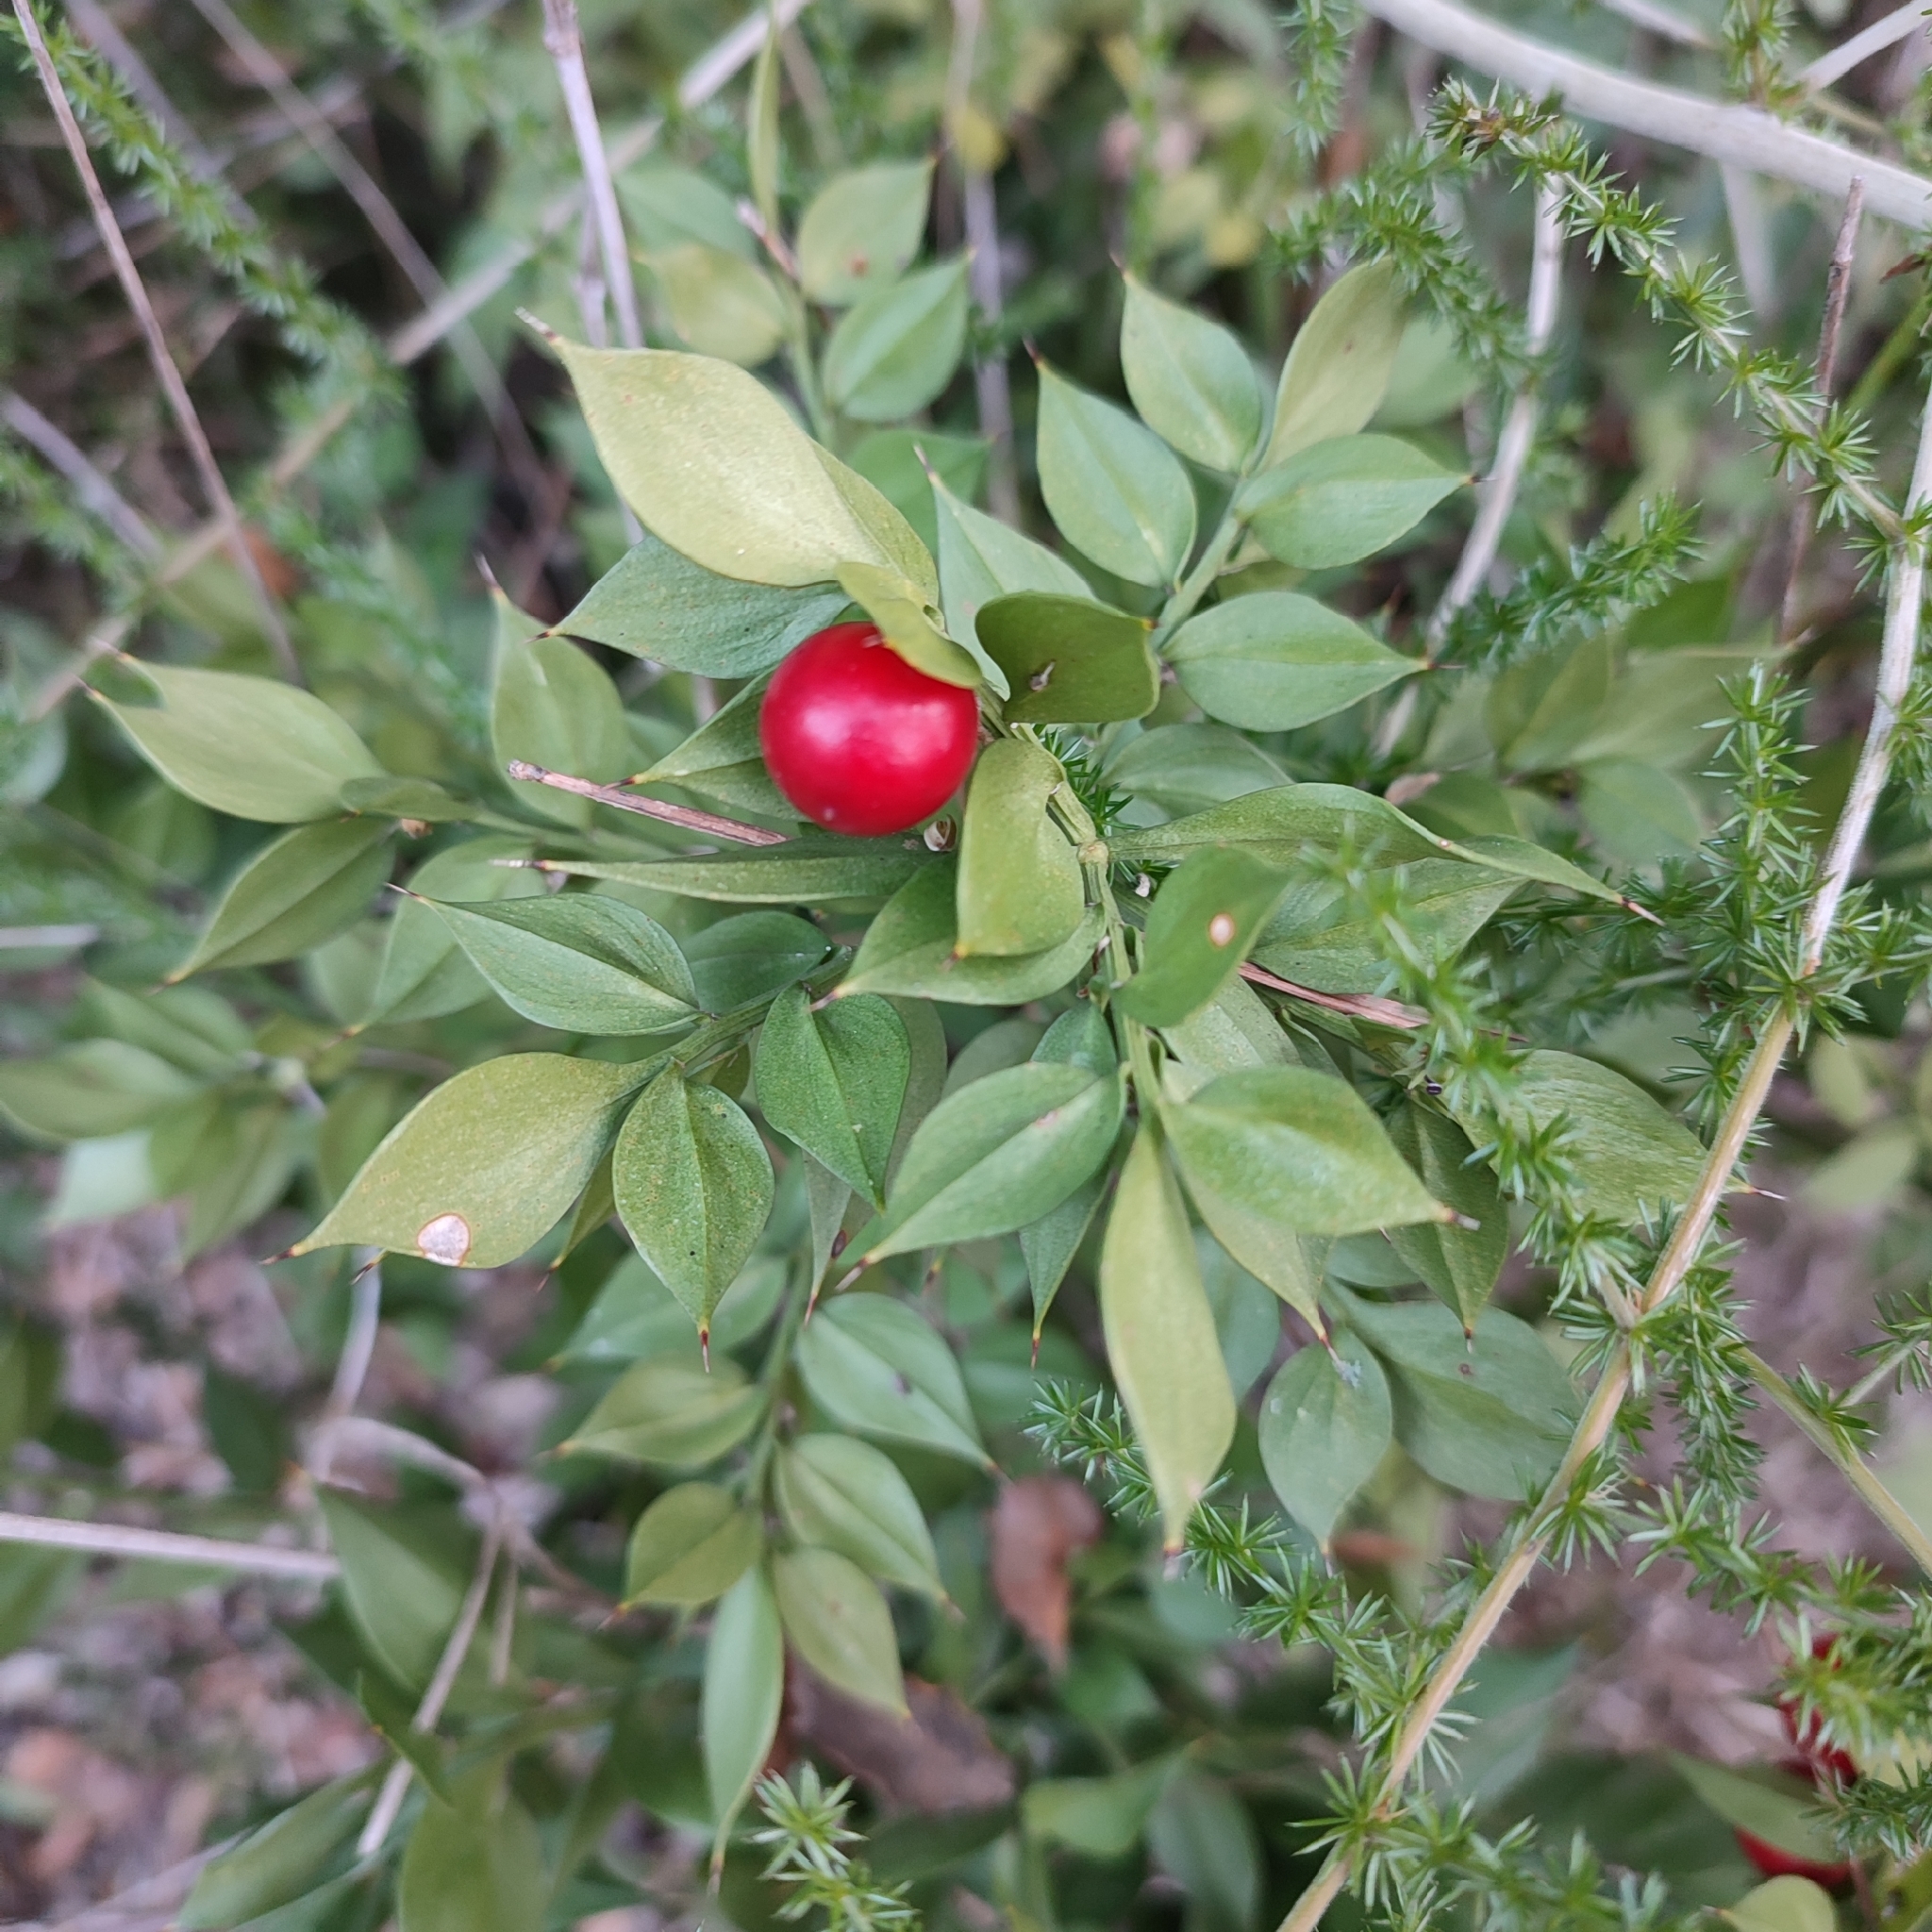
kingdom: Plantae
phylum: Tracheophyta
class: Liliopsida
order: Asparagales
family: Asparagaceae
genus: Ruscus
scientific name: Ruscus aculeatus
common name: Butcher's-broom
